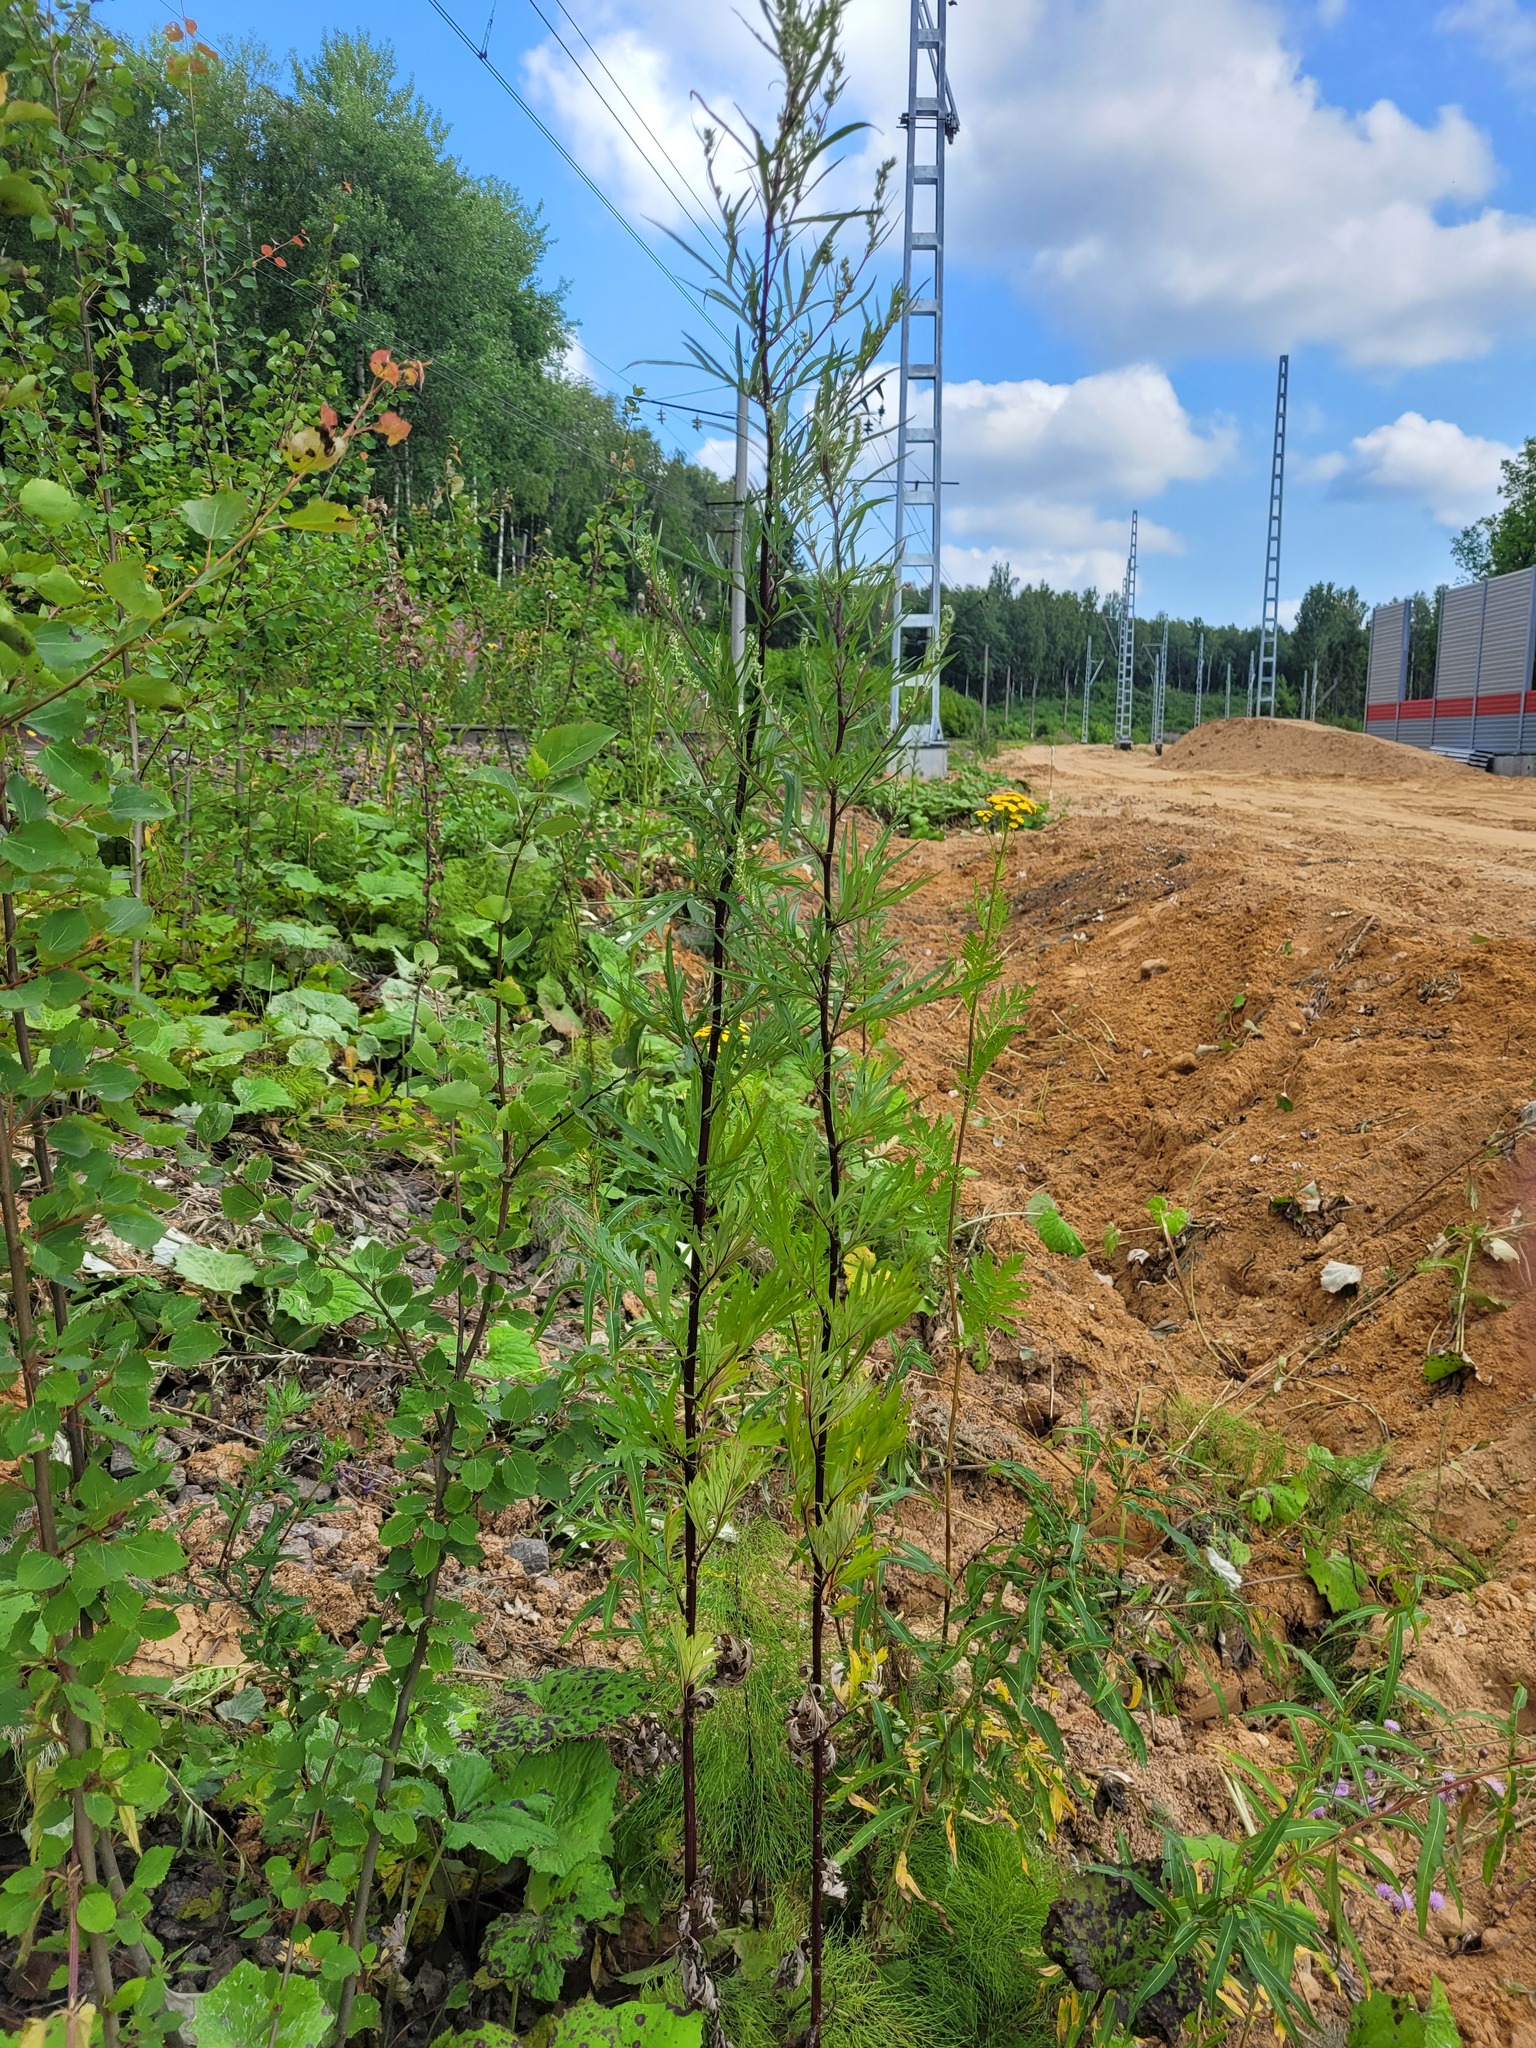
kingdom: Plantae
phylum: Tracheophyta
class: Magnoliopsida
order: Asterales
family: Asteraceae
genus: Artemisia
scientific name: Artemisia vulgaris
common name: Mugwort
